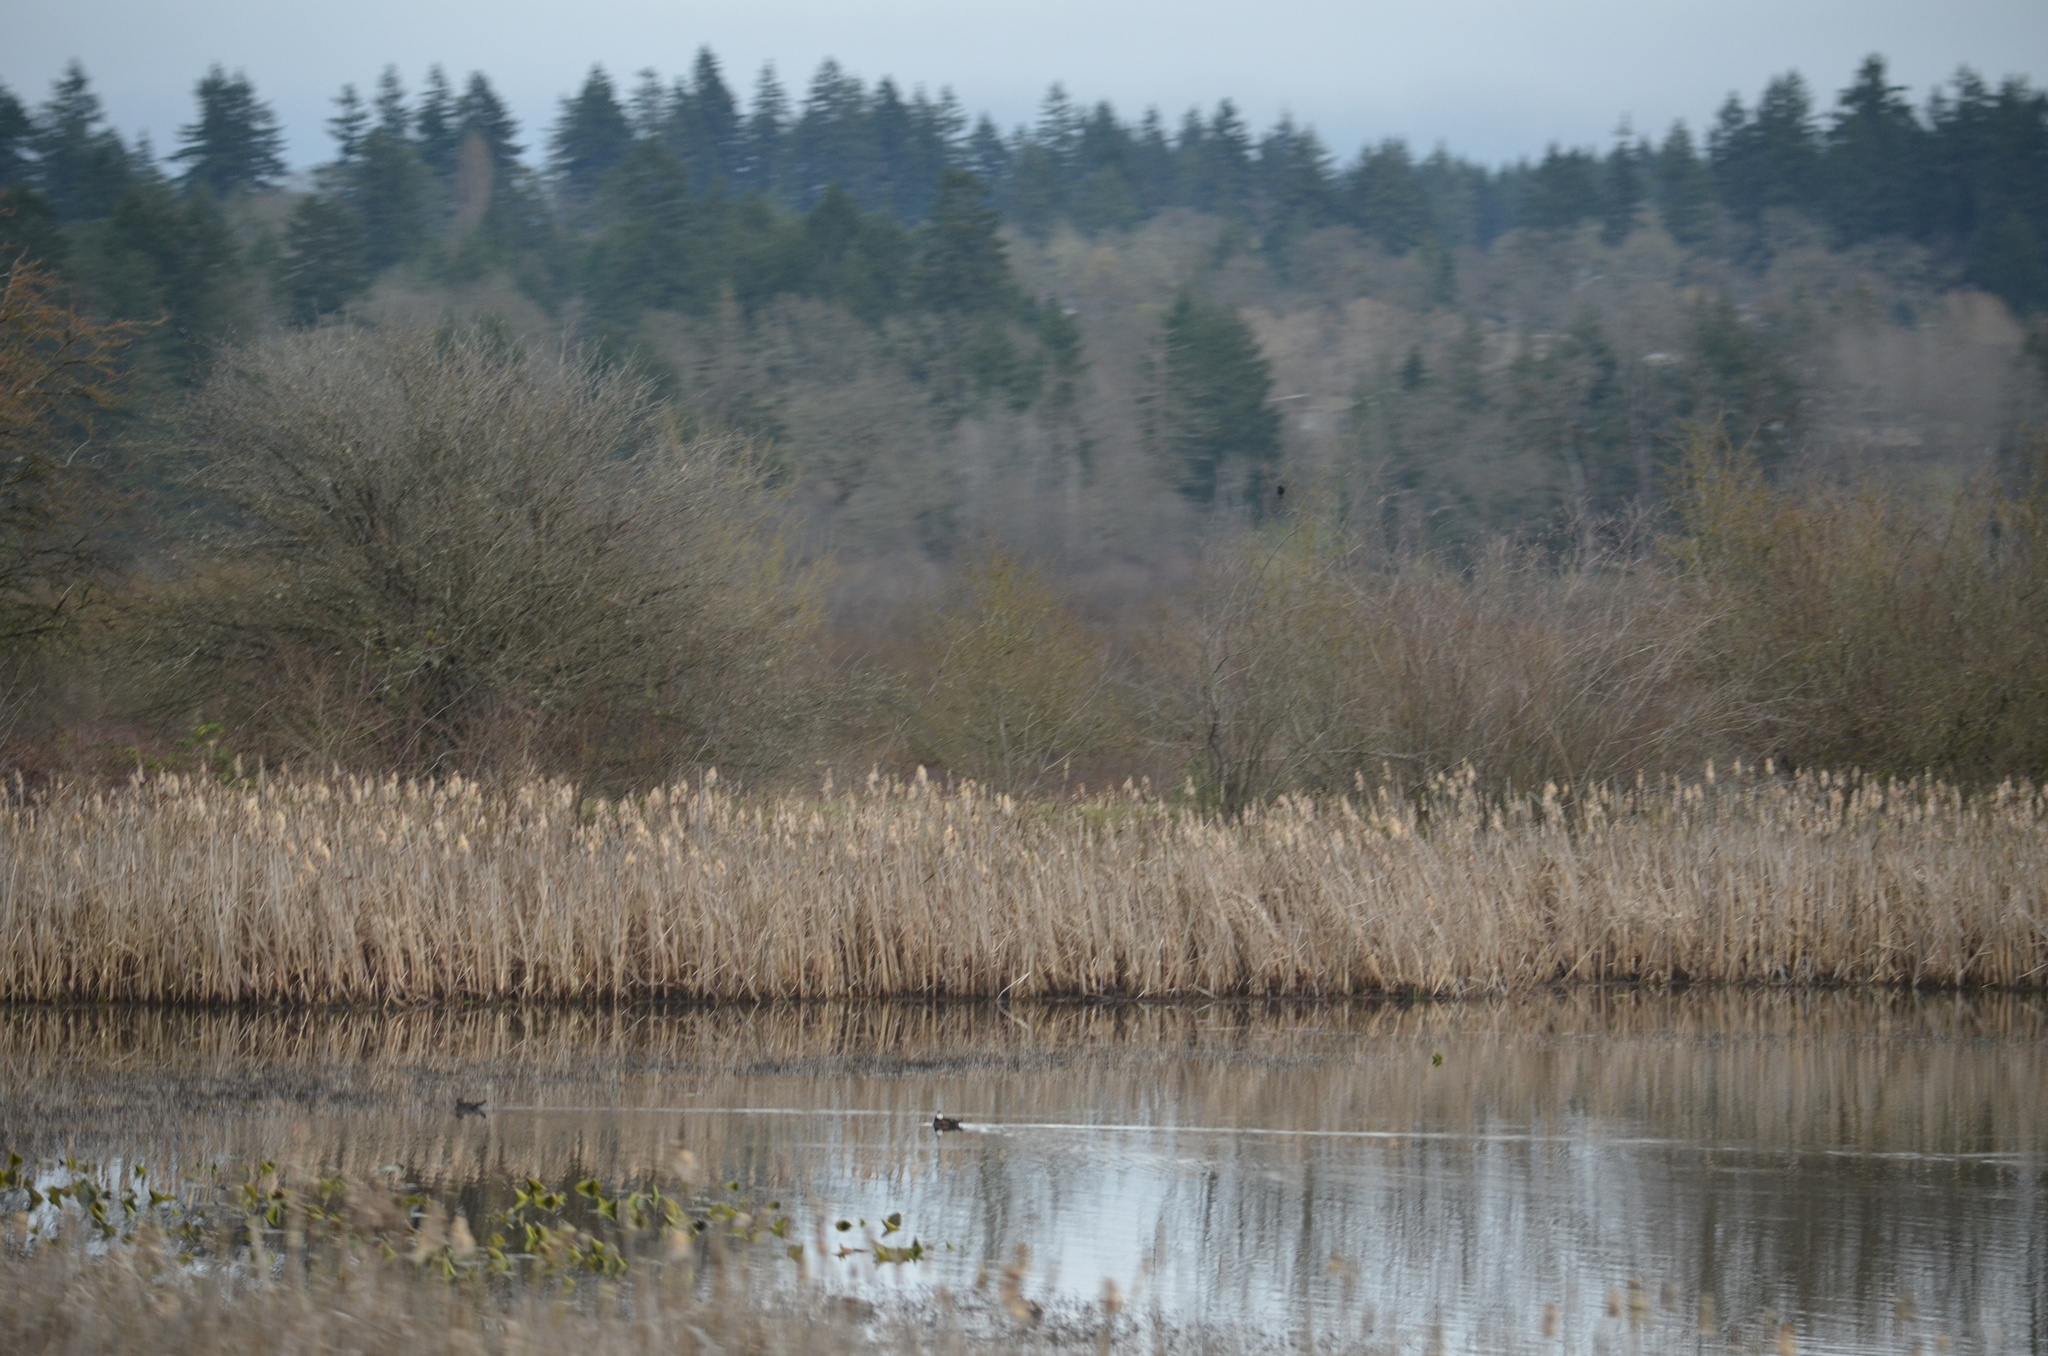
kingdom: Animalia
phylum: Chordata
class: Aves
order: Anseriformes
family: Anatidae
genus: Lophodytes
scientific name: Lophodytes cucullatus
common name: Hooded merganser
